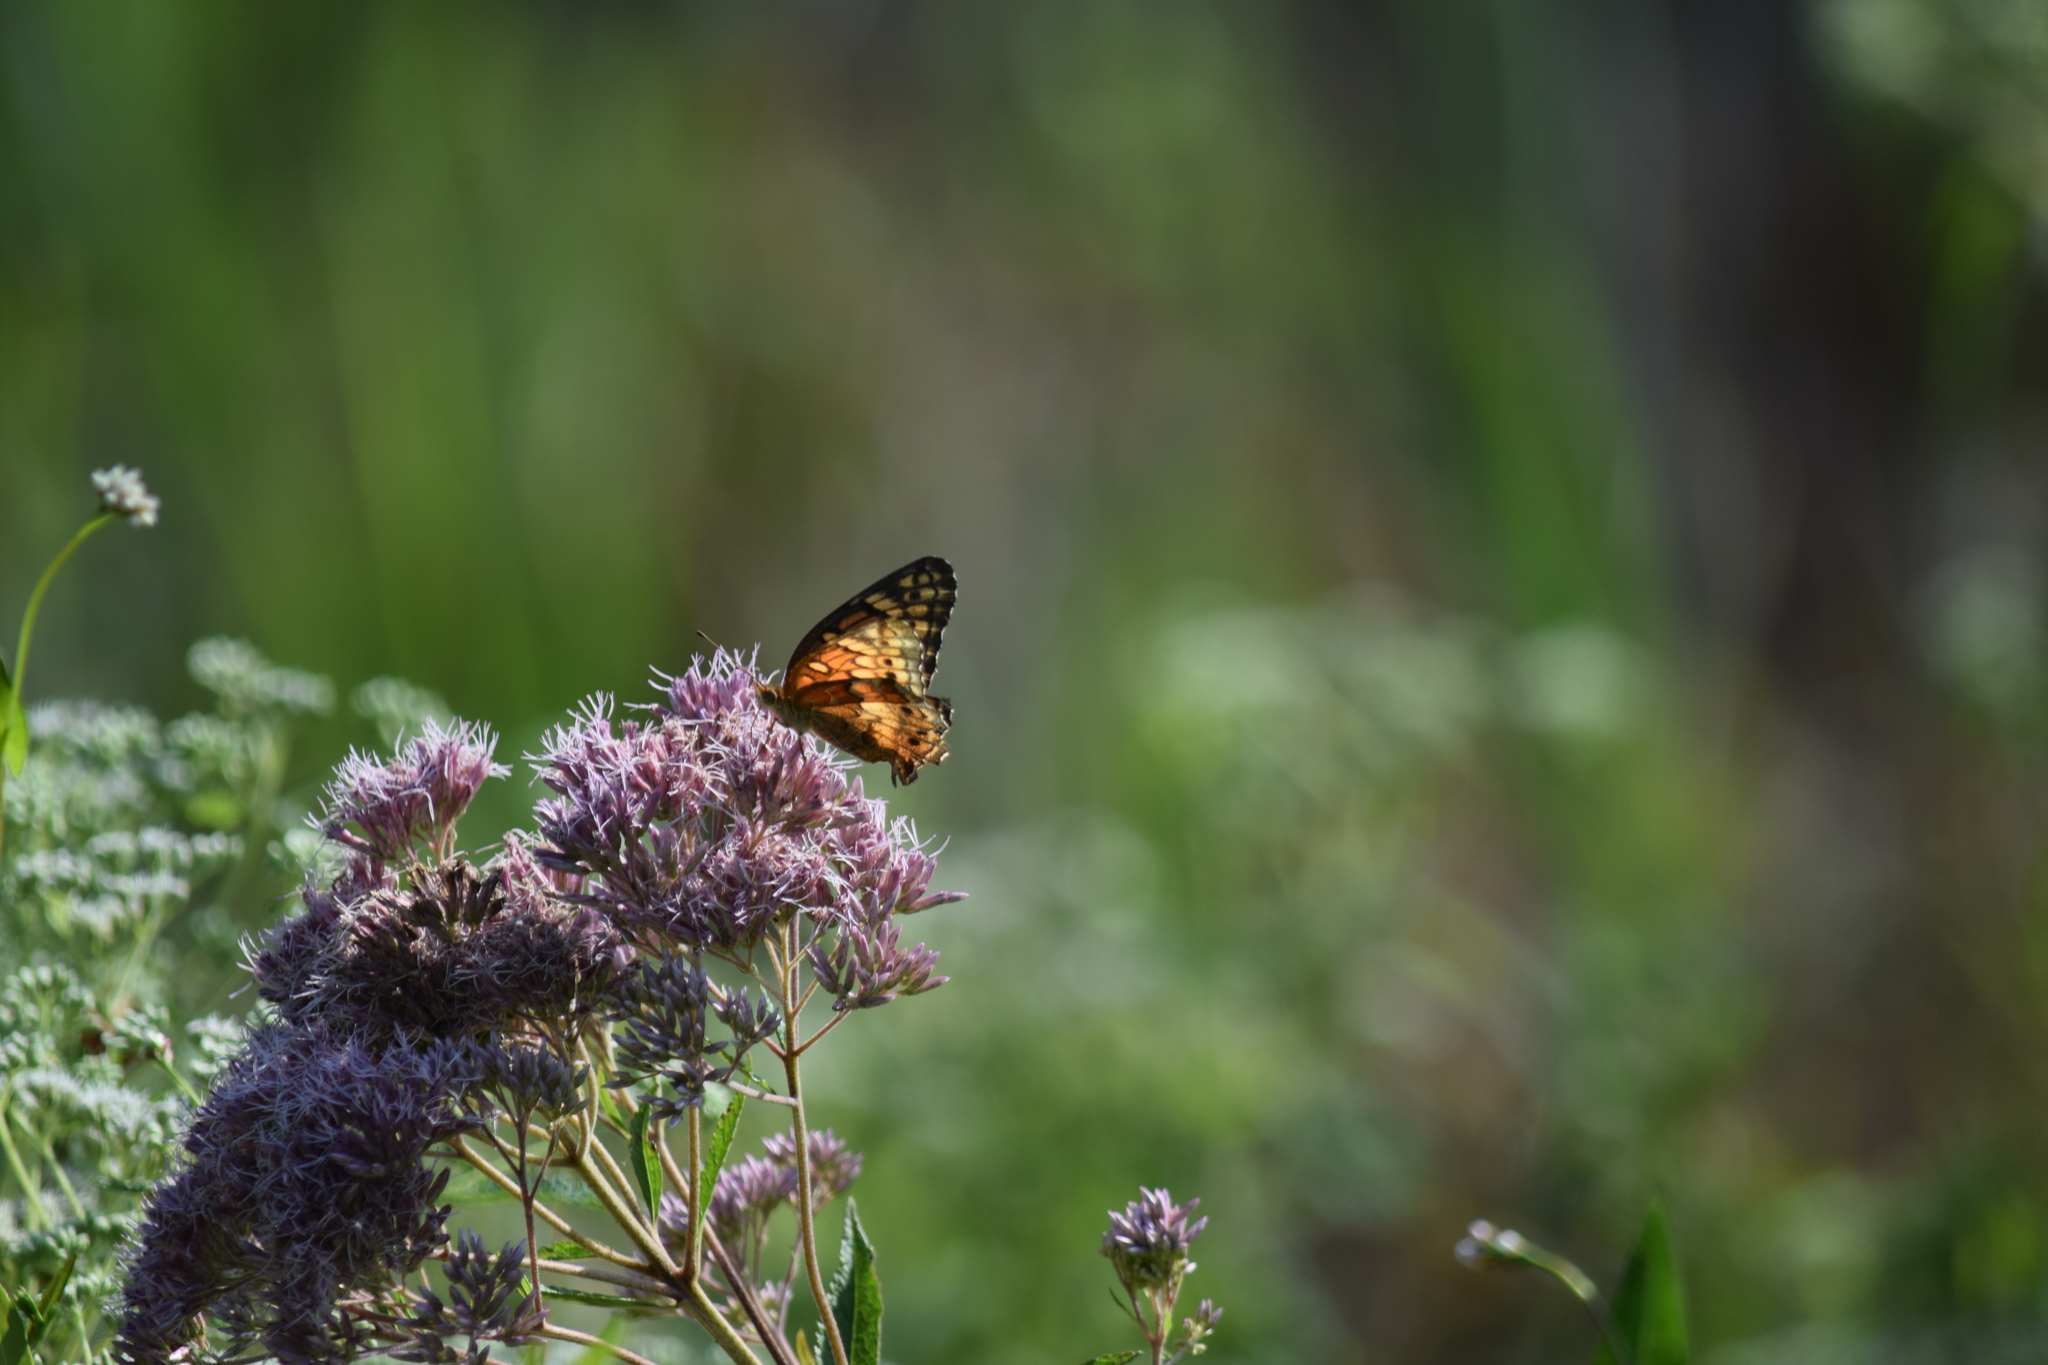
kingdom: Animalia
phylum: Arthropoda
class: Insecta
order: Lepidoptera
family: Nymphalidae
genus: Euptoieta
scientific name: Euptoieta claudia
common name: Variegated fritillary
